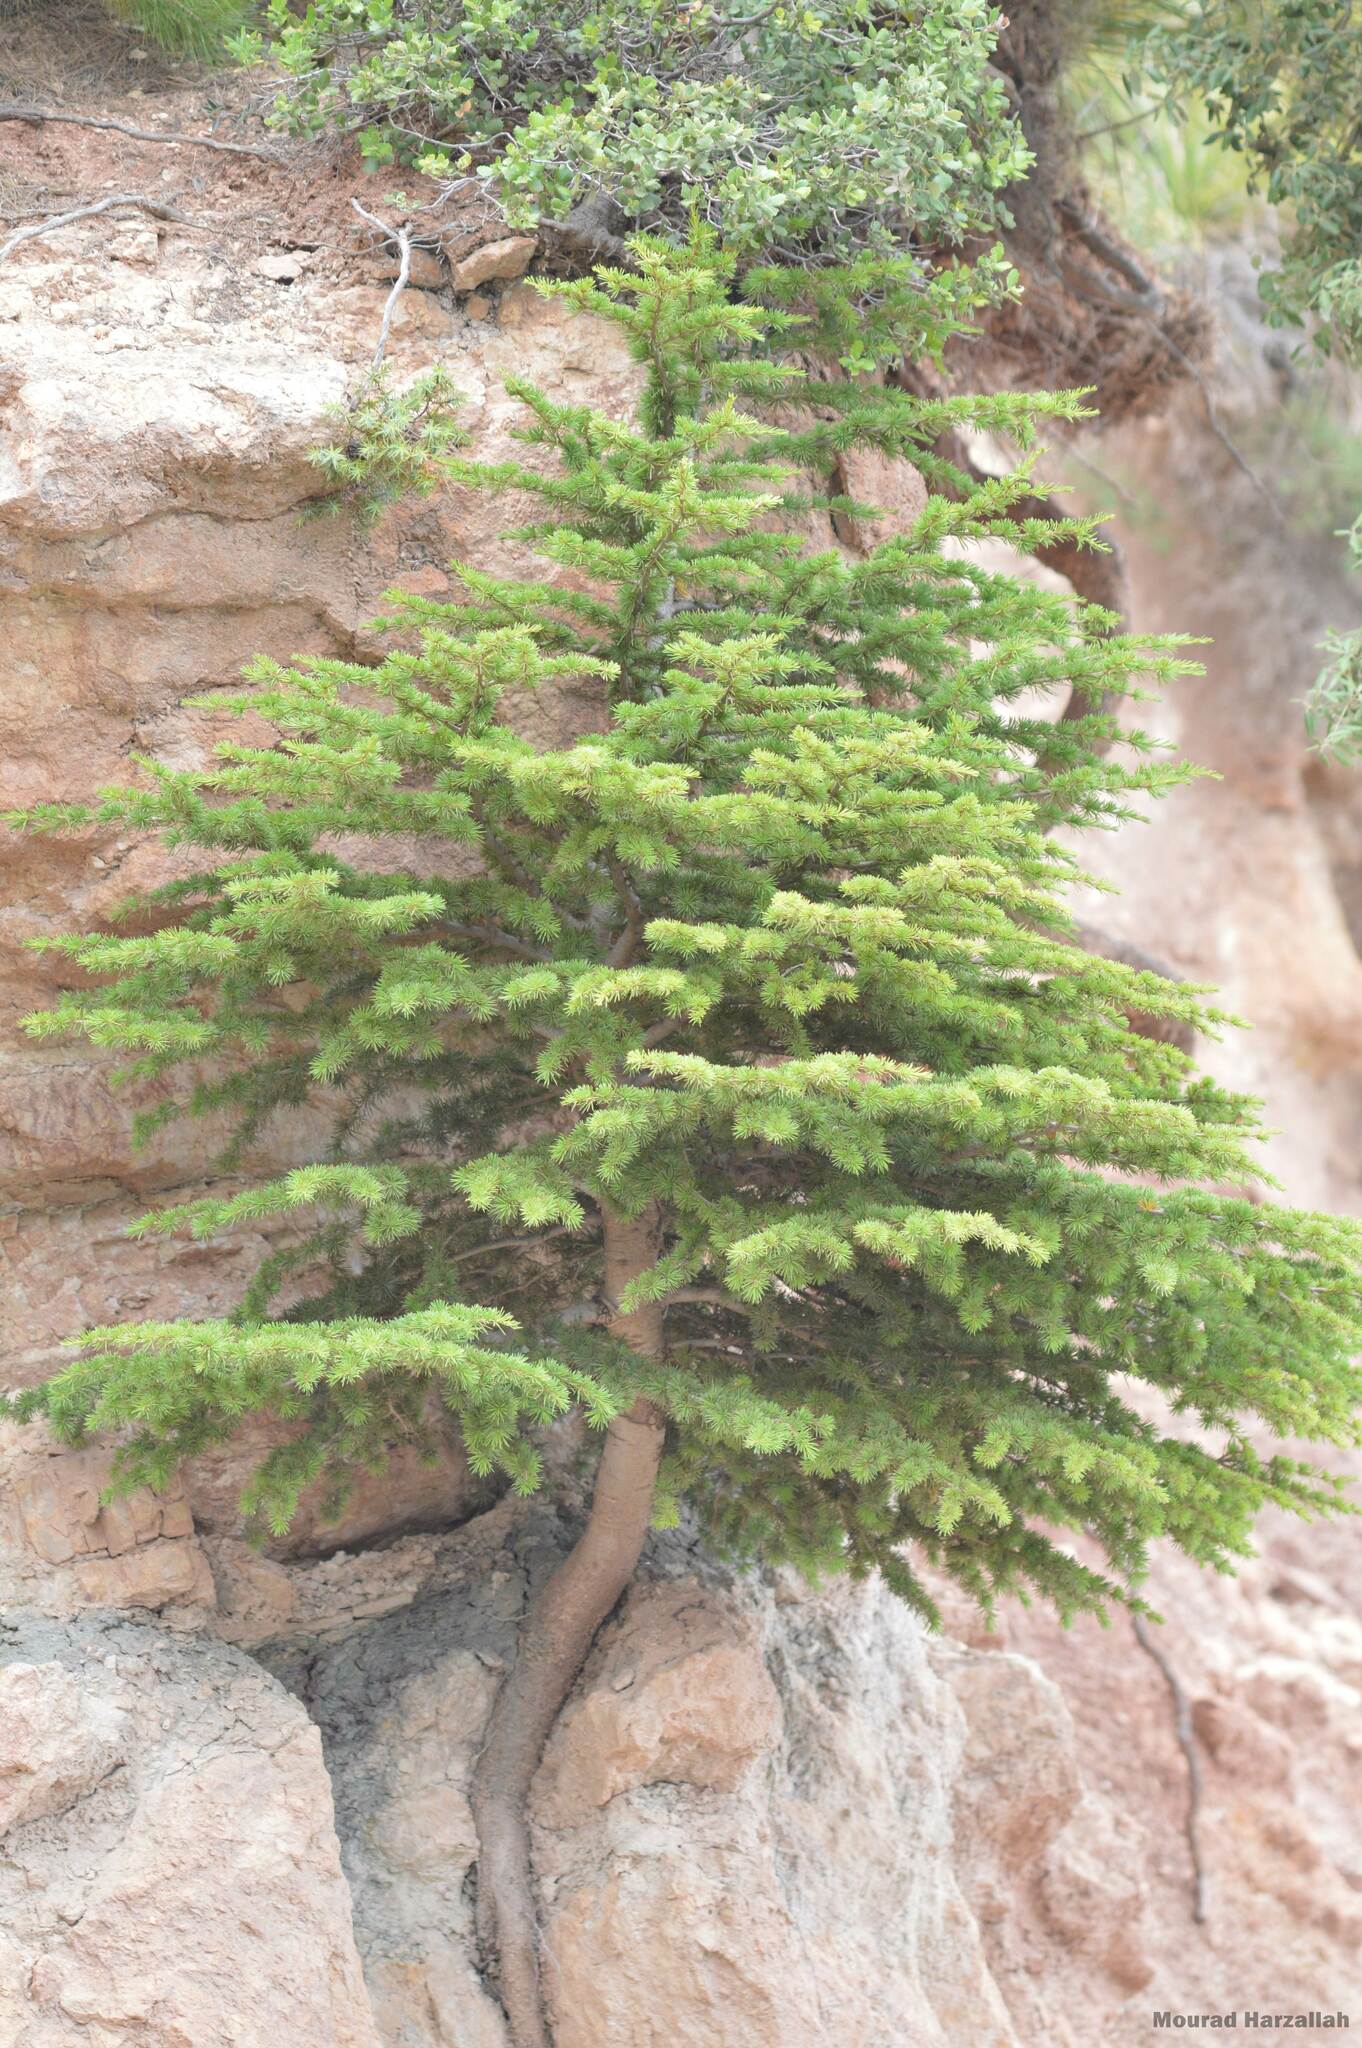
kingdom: Plantae
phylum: Tracheophyta
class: Pinopsida
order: Pinales
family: Pinaceae
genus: Cedrus
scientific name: Cedrus atlantica
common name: Atlas cedar
